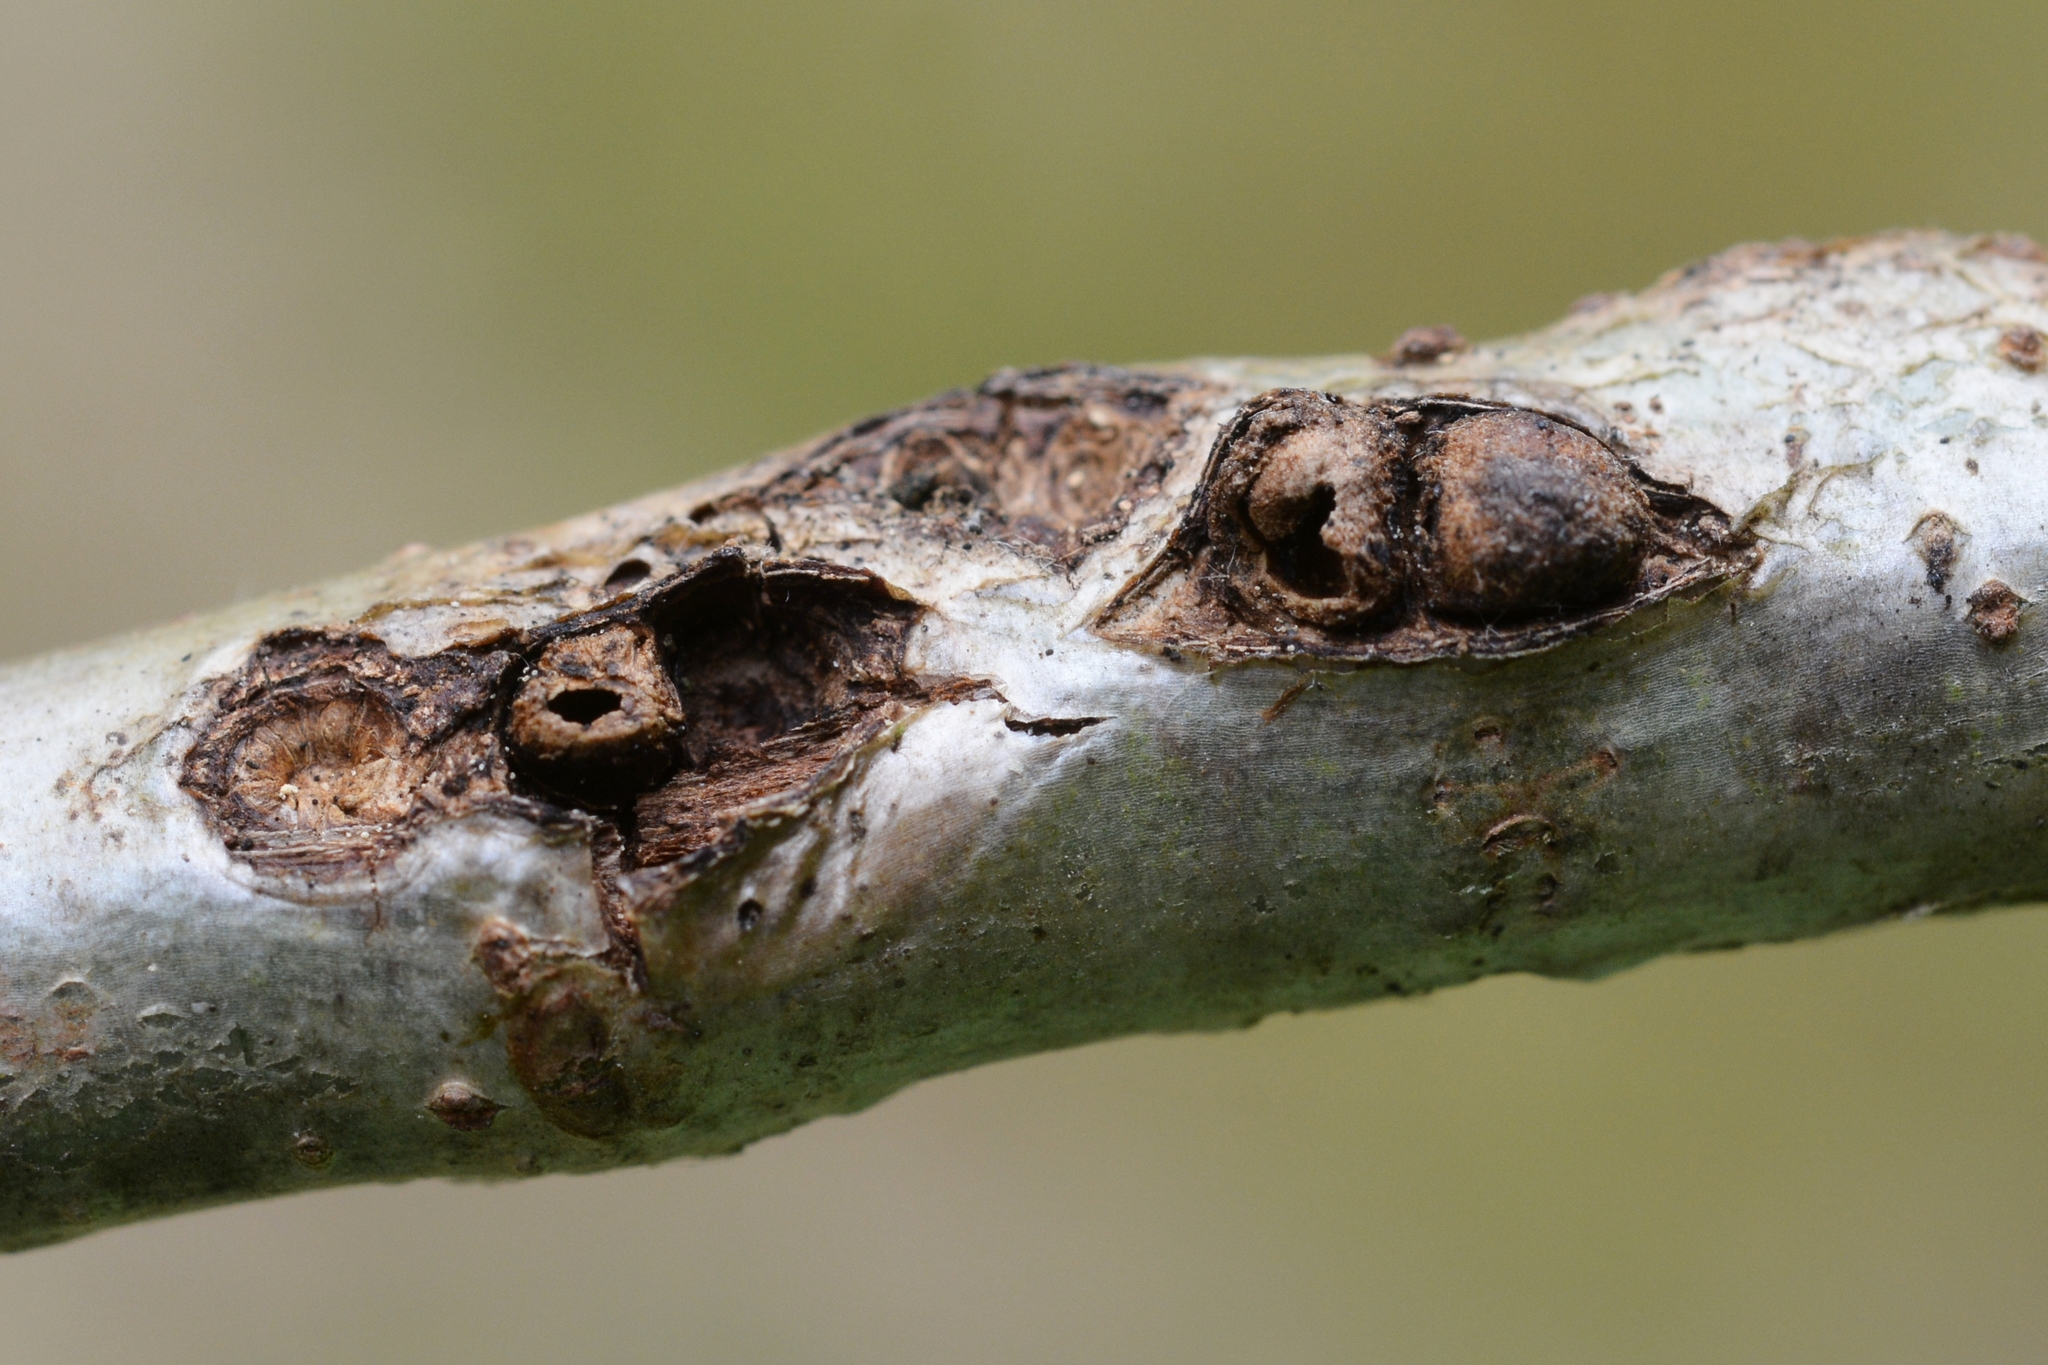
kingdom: Animalia
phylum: Arthropoda
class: Insecta
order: Hymenoptera
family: Cynipidae
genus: Andricus
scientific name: Andricus sieboldi
